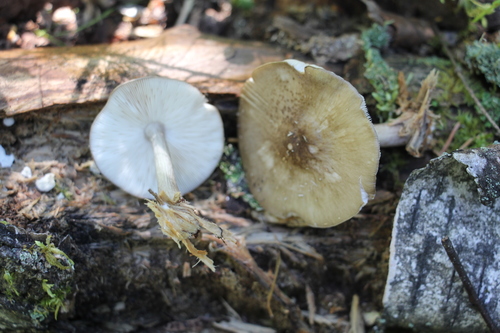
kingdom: Fungi
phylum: Basidiomycota
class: Agaricomycetes
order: Agaricales
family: Pluteaceae
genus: Pluteus
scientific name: Pluteus
